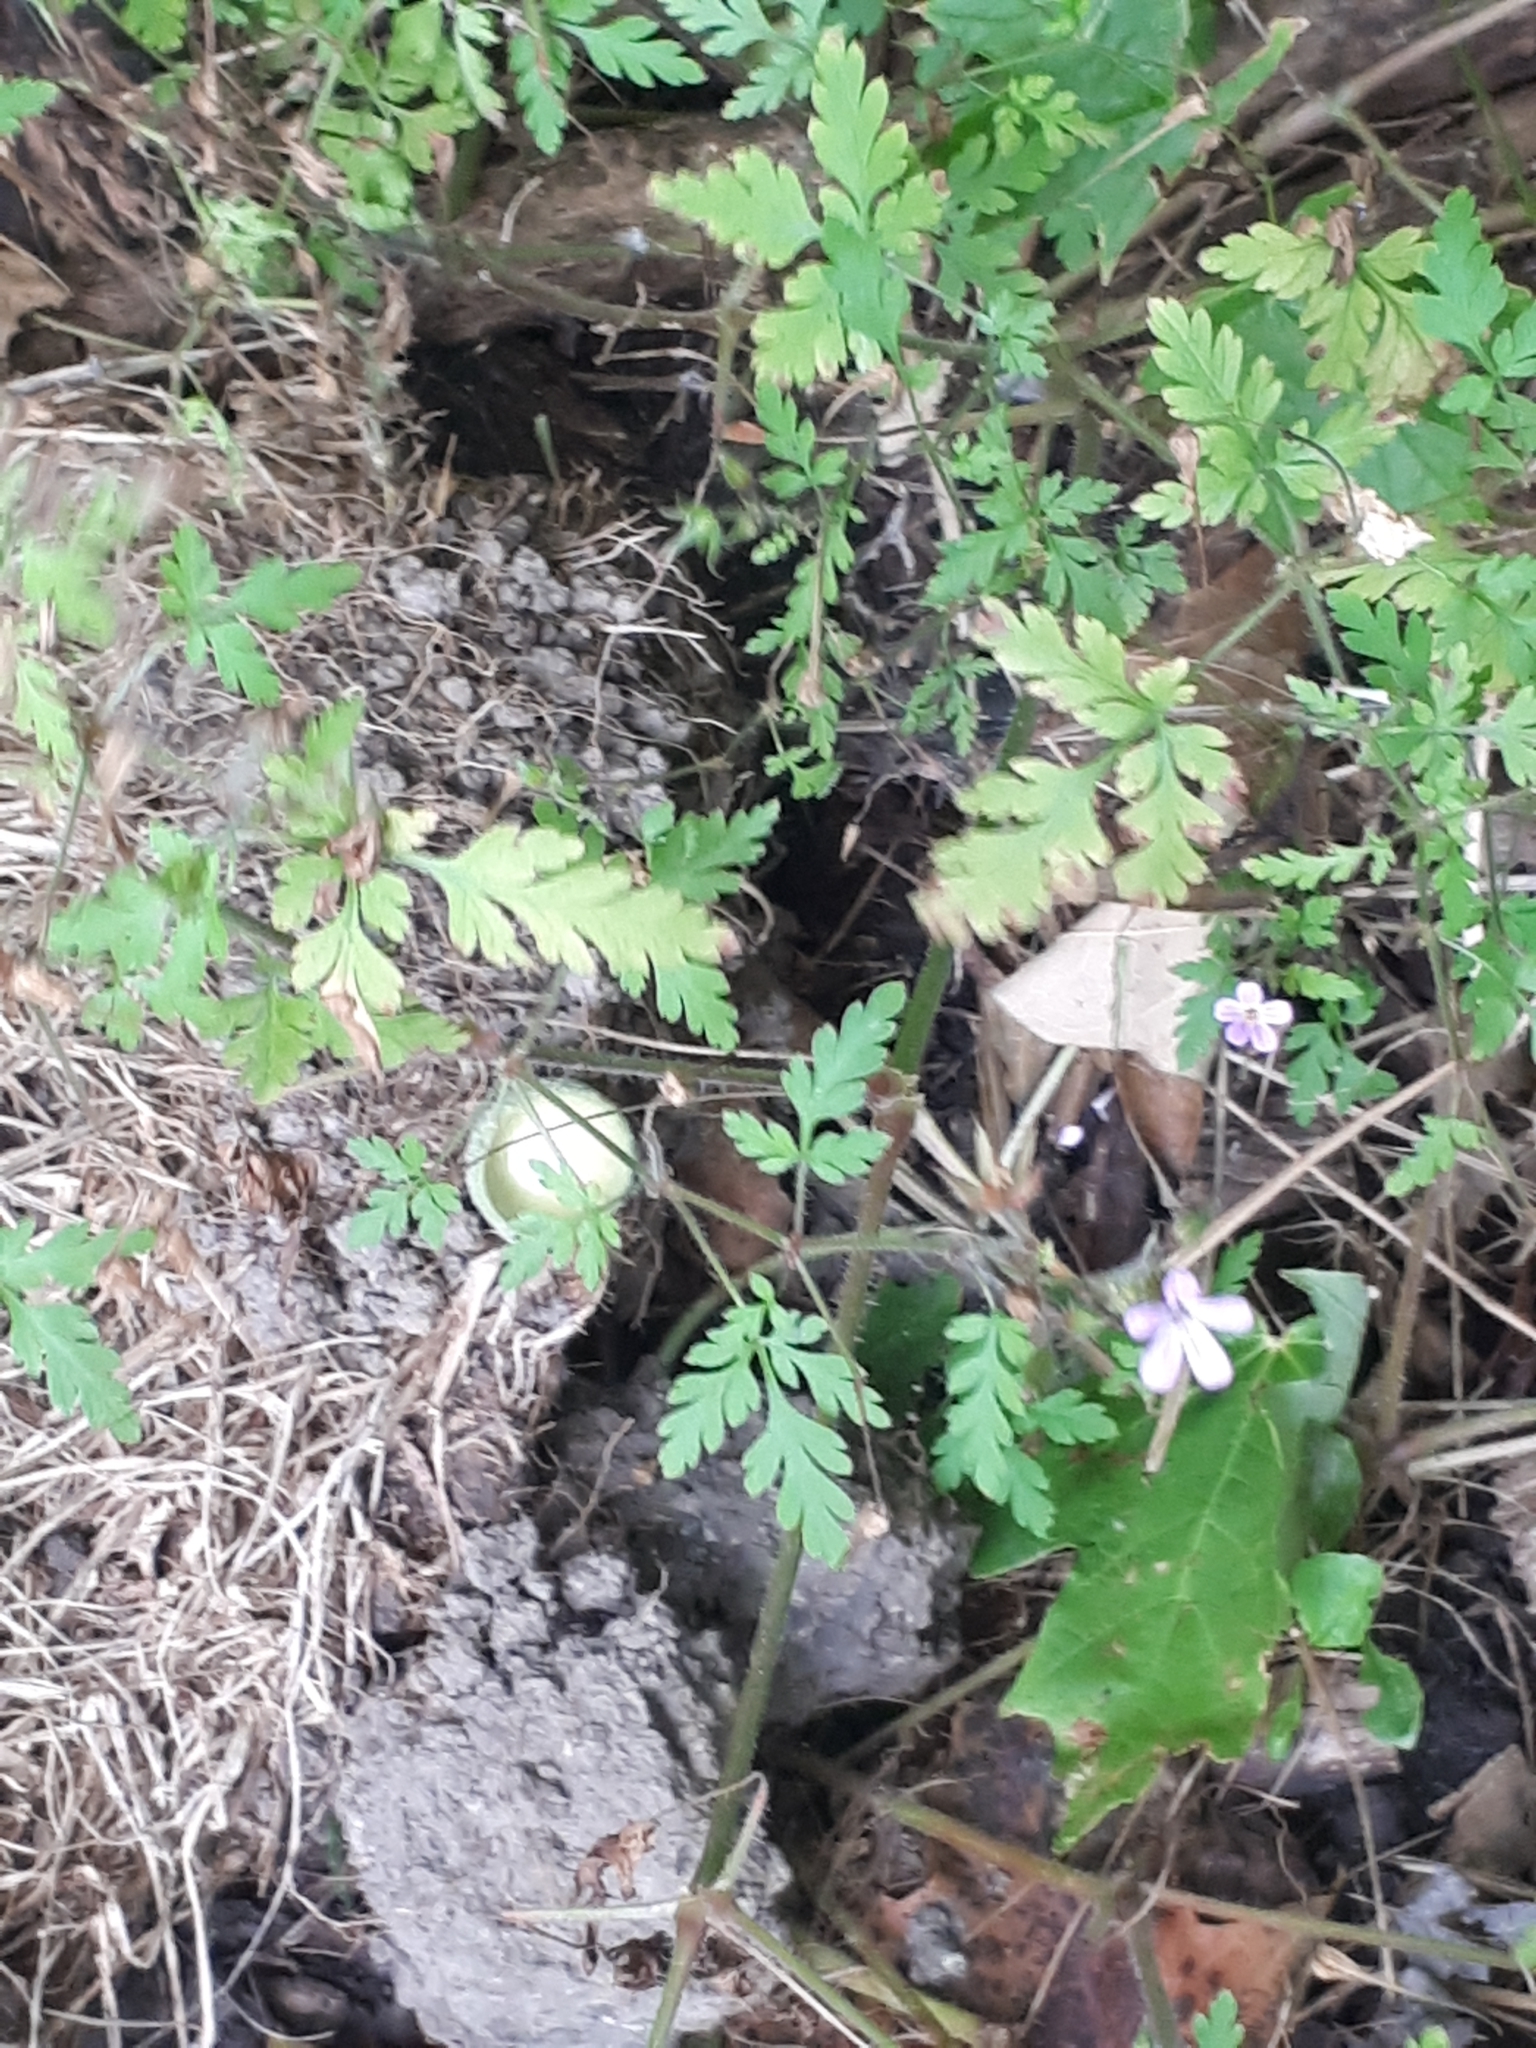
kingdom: Plantae
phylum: Tracheophyta
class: Magnoliopsida
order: Geraniales
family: Geraniaceae
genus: Geranium
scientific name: Geranium robertianum
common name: Herb-robert
